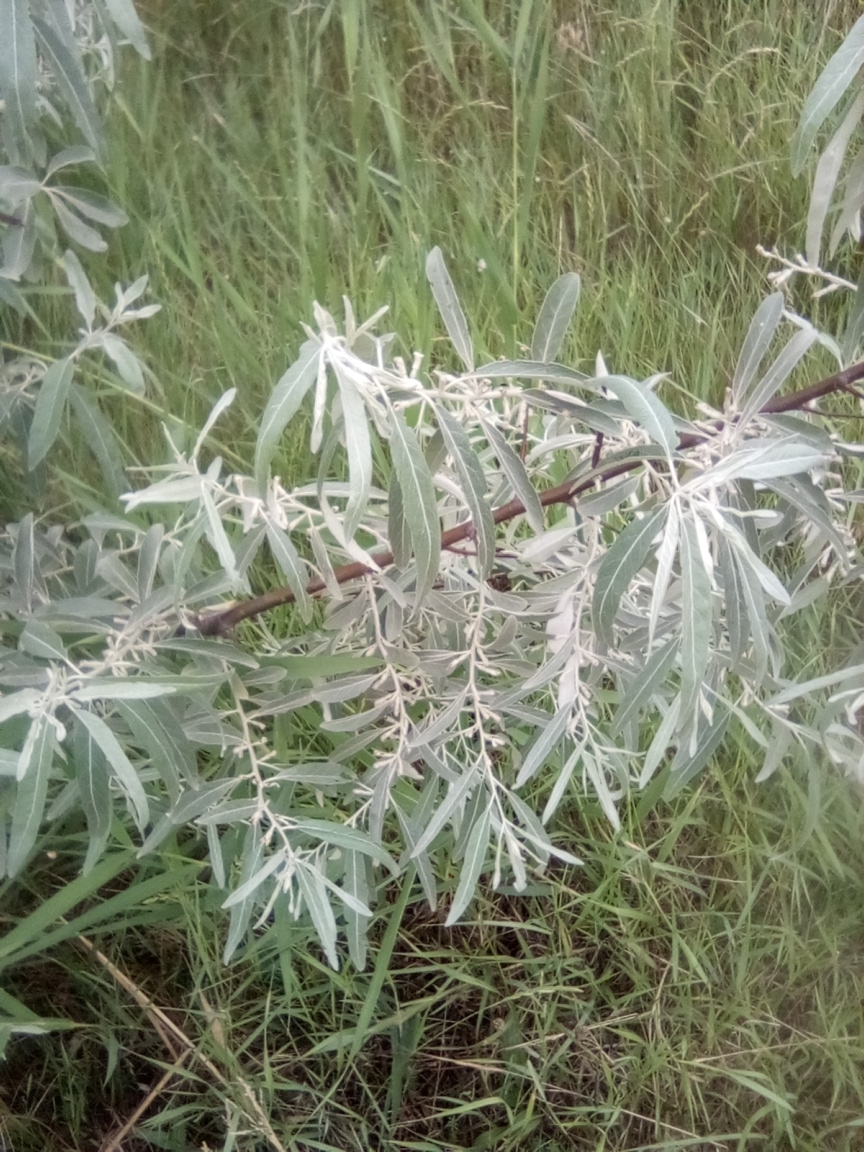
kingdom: Plantae
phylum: Tracheophyta
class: Magnoliopsida
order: Rosales
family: Elaeagnaceae
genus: Elaeagnus
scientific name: Elaeagnus angustifolia
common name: Russian olive
